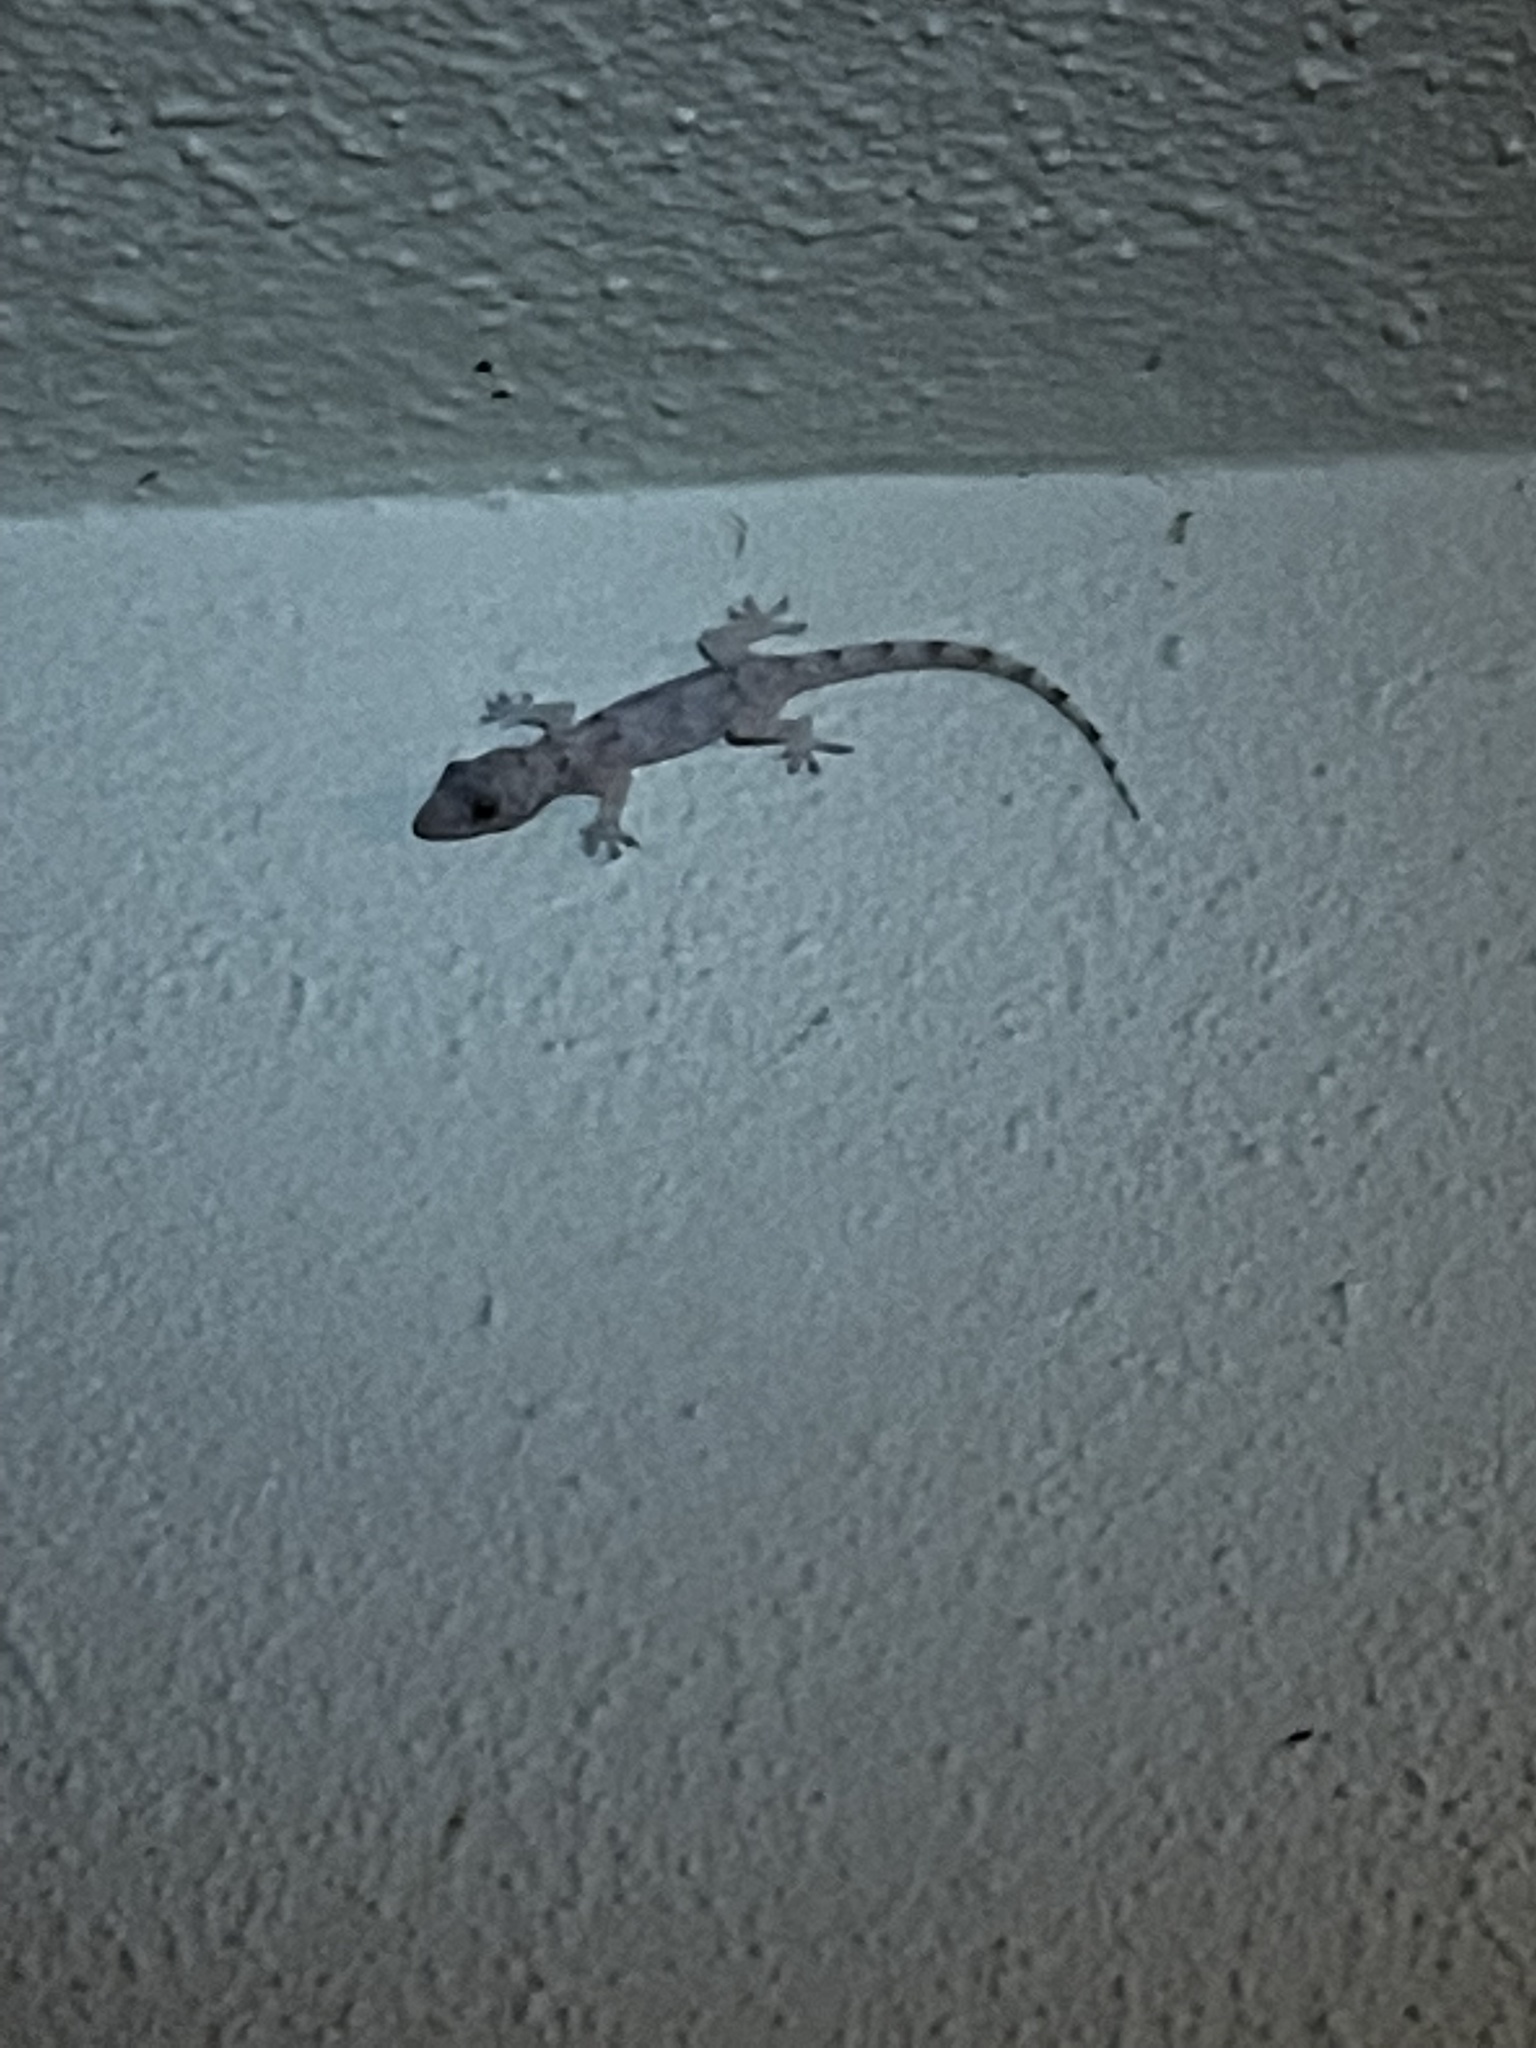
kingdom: Animalia
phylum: Chordata
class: Squamata
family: Gekkonidae
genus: Hemidactylus
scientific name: Hemidactylus mabouia
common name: House gecko
